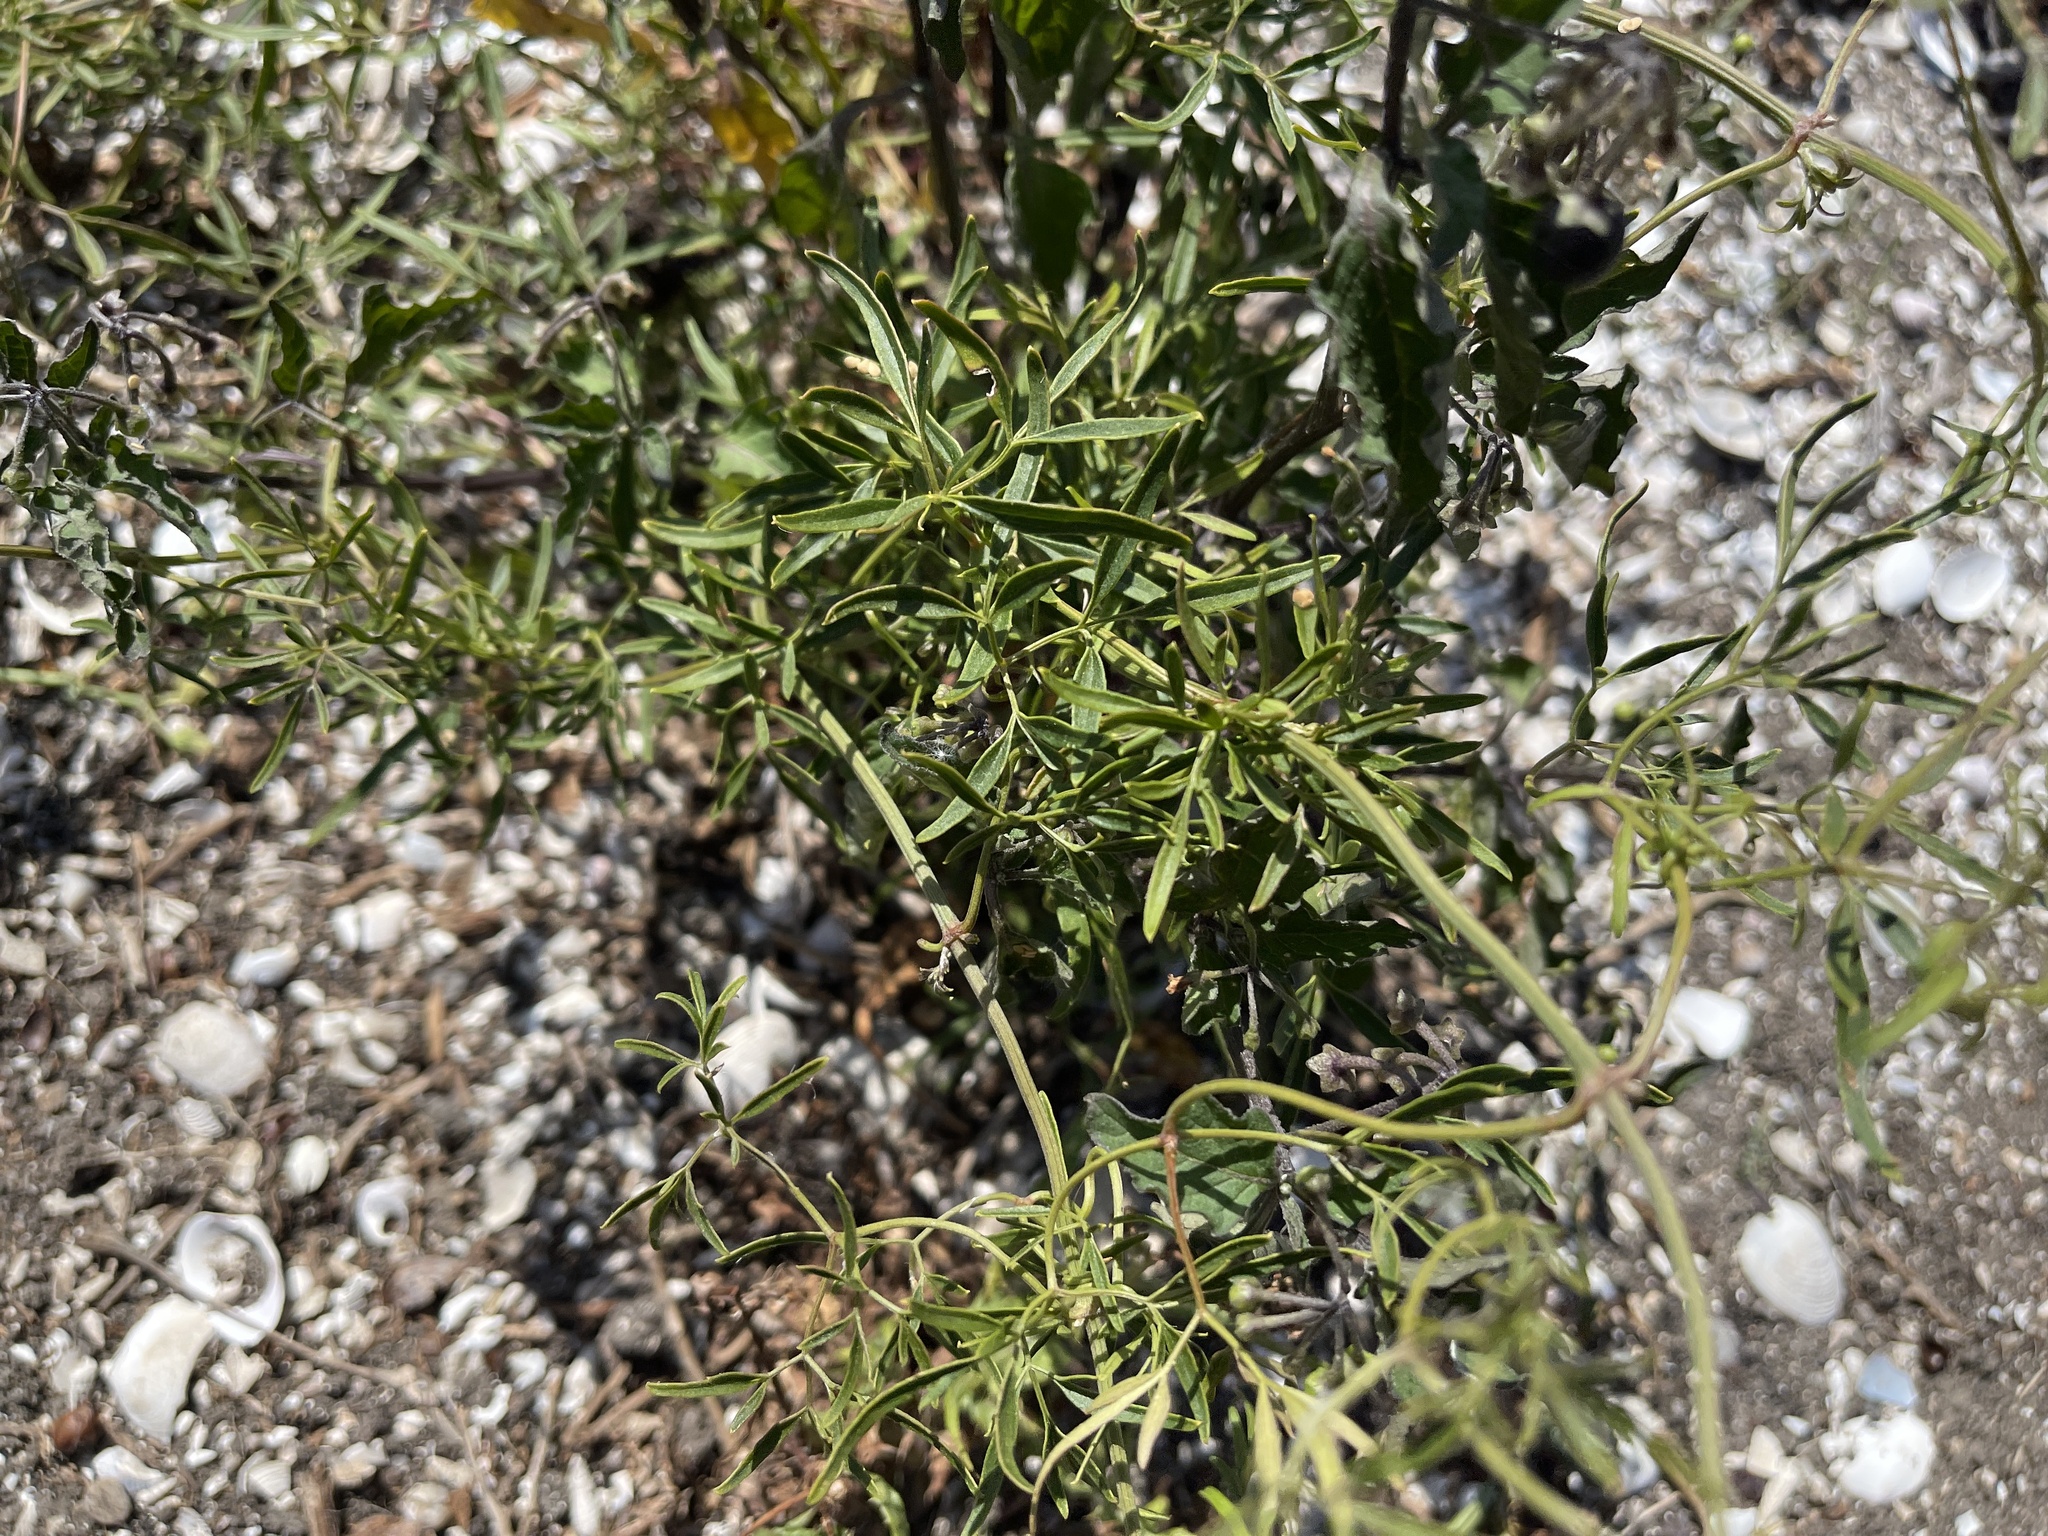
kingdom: Plantae
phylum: Tracheophyta
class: Magnoliopsida
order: Ranunculales
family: Ranunculaceae
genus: Clematis
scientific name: Clematis microphylla
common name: Headachevine
